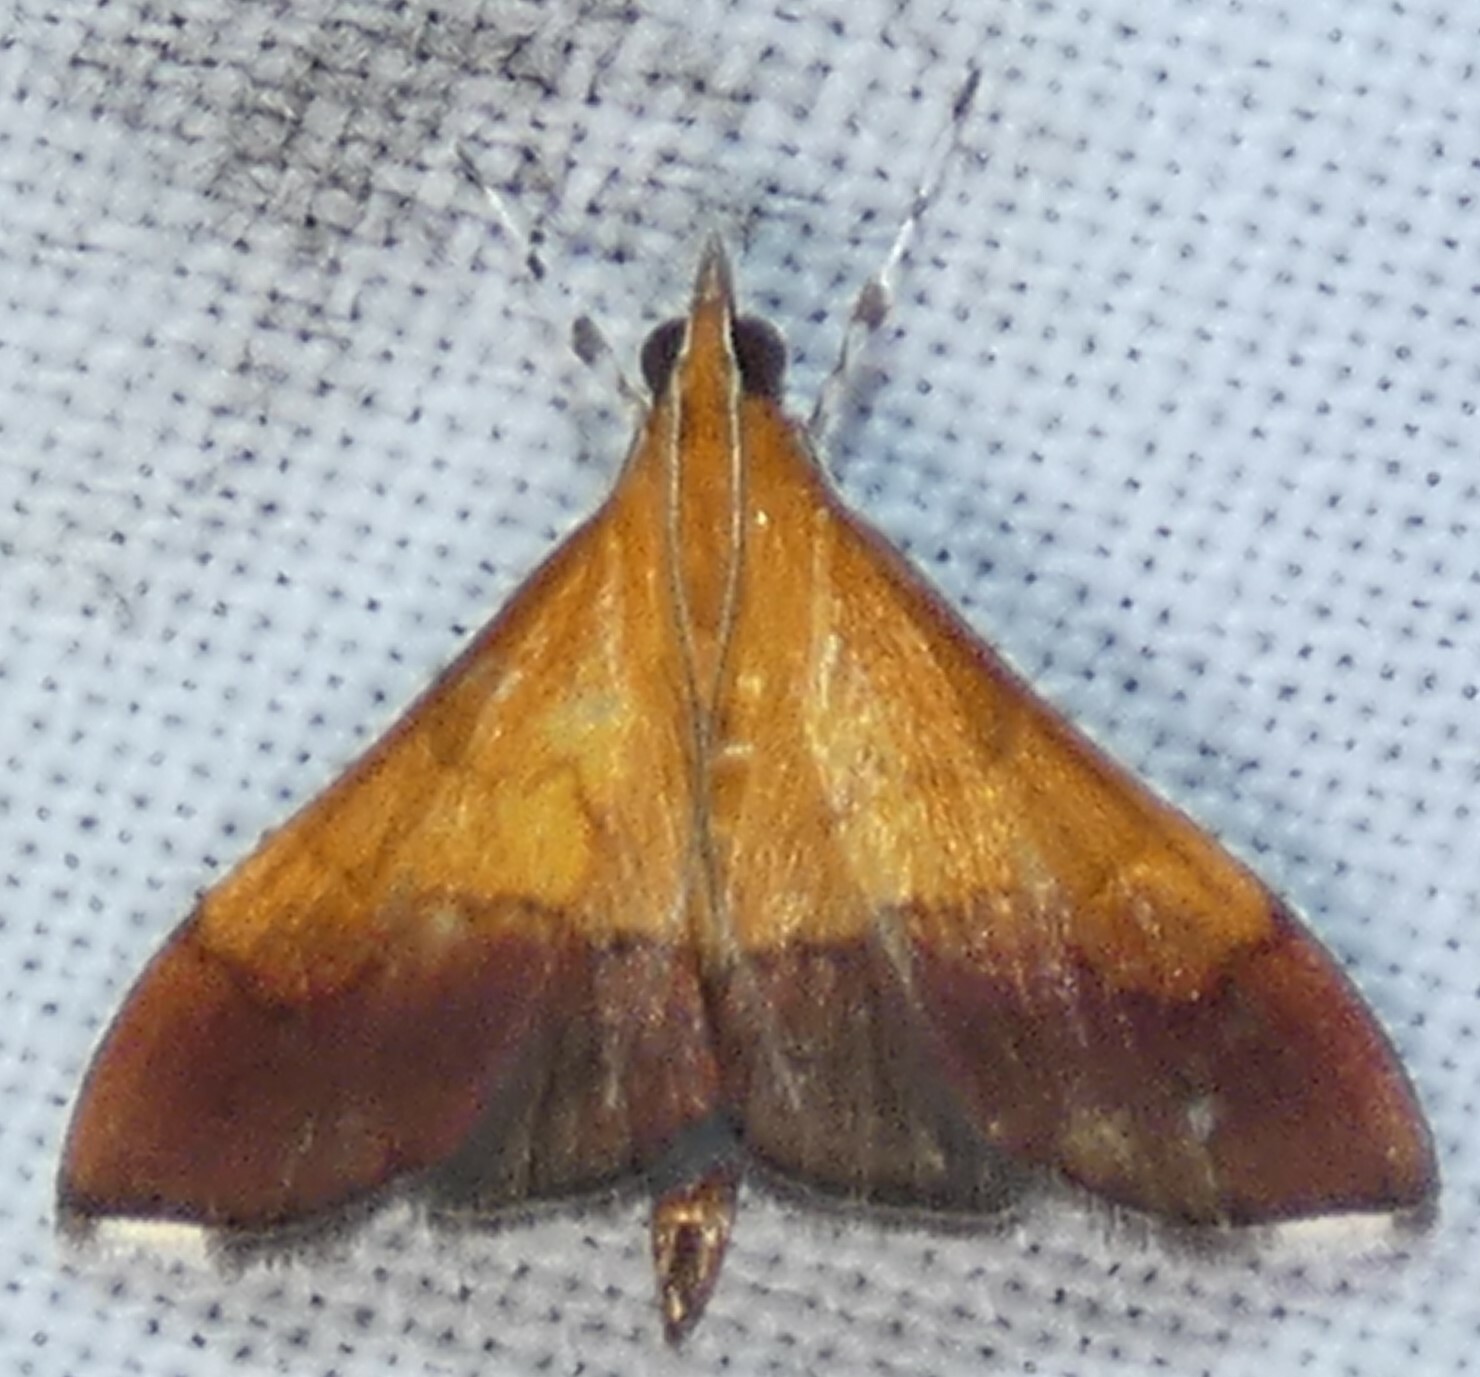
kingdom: Animalia
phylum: Arthropoda
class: Insecta
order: Lepidoptera
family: Crambidae
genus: Pyrausta
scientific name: Pyrausta bicoloralis
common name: Bicolored pyrausta moth
